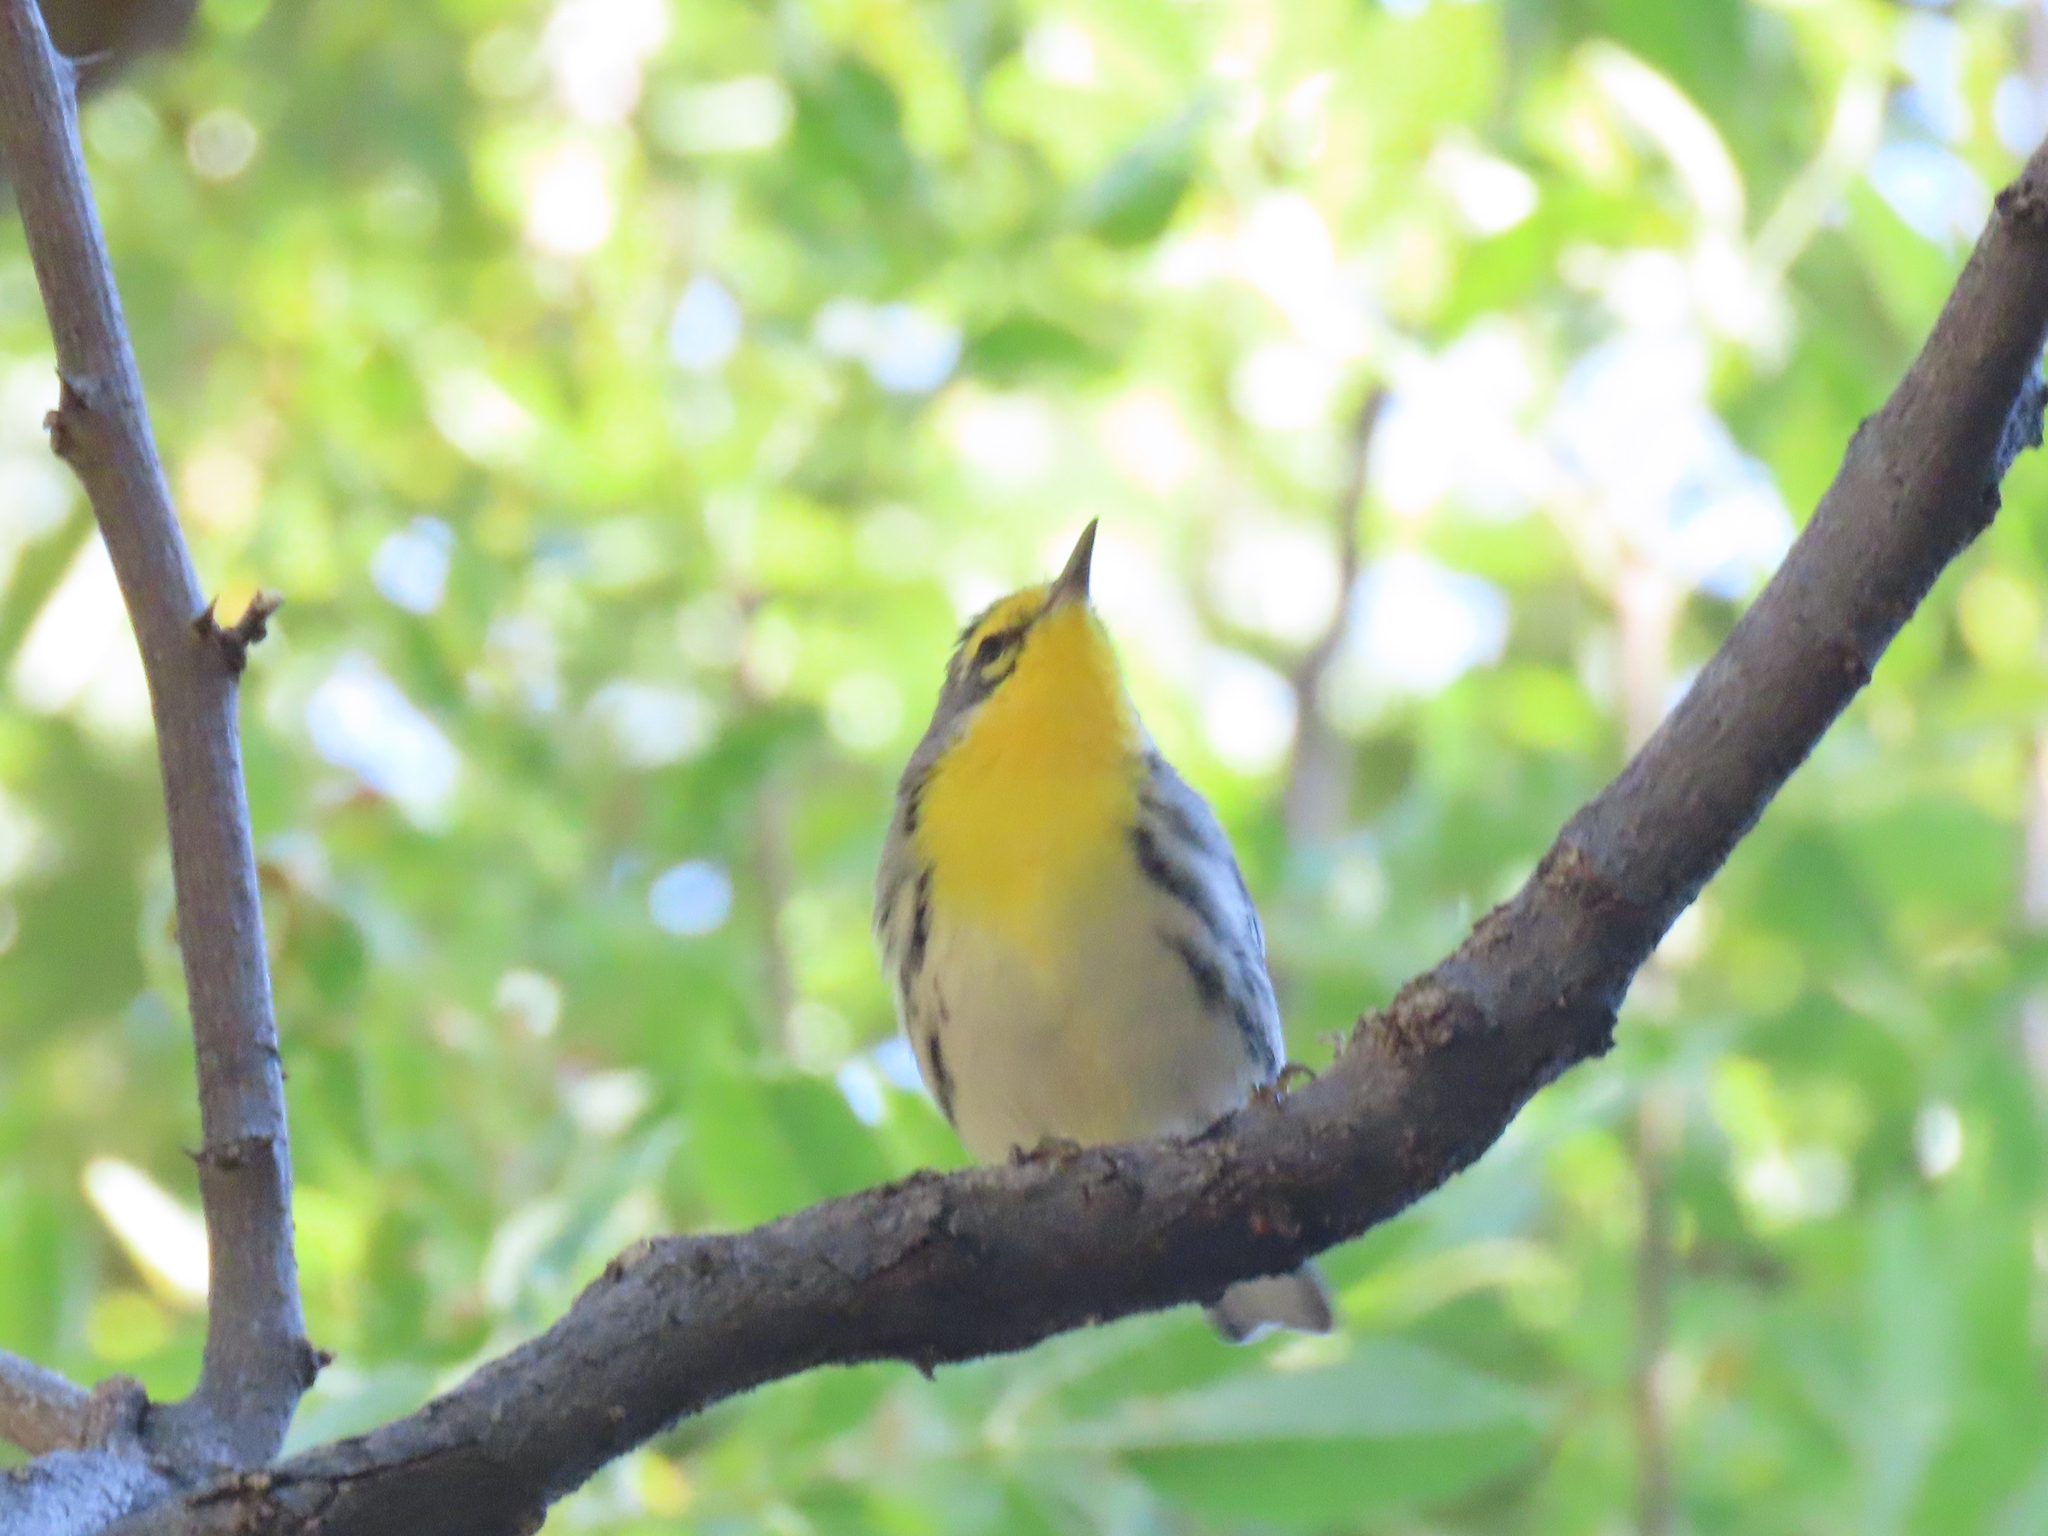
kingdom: Animalia
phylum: Chordata
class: Aves
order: Passeriformes
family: Parulidae
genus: Setophaga
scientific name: Setophaga graciae
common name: Grace's warbler
